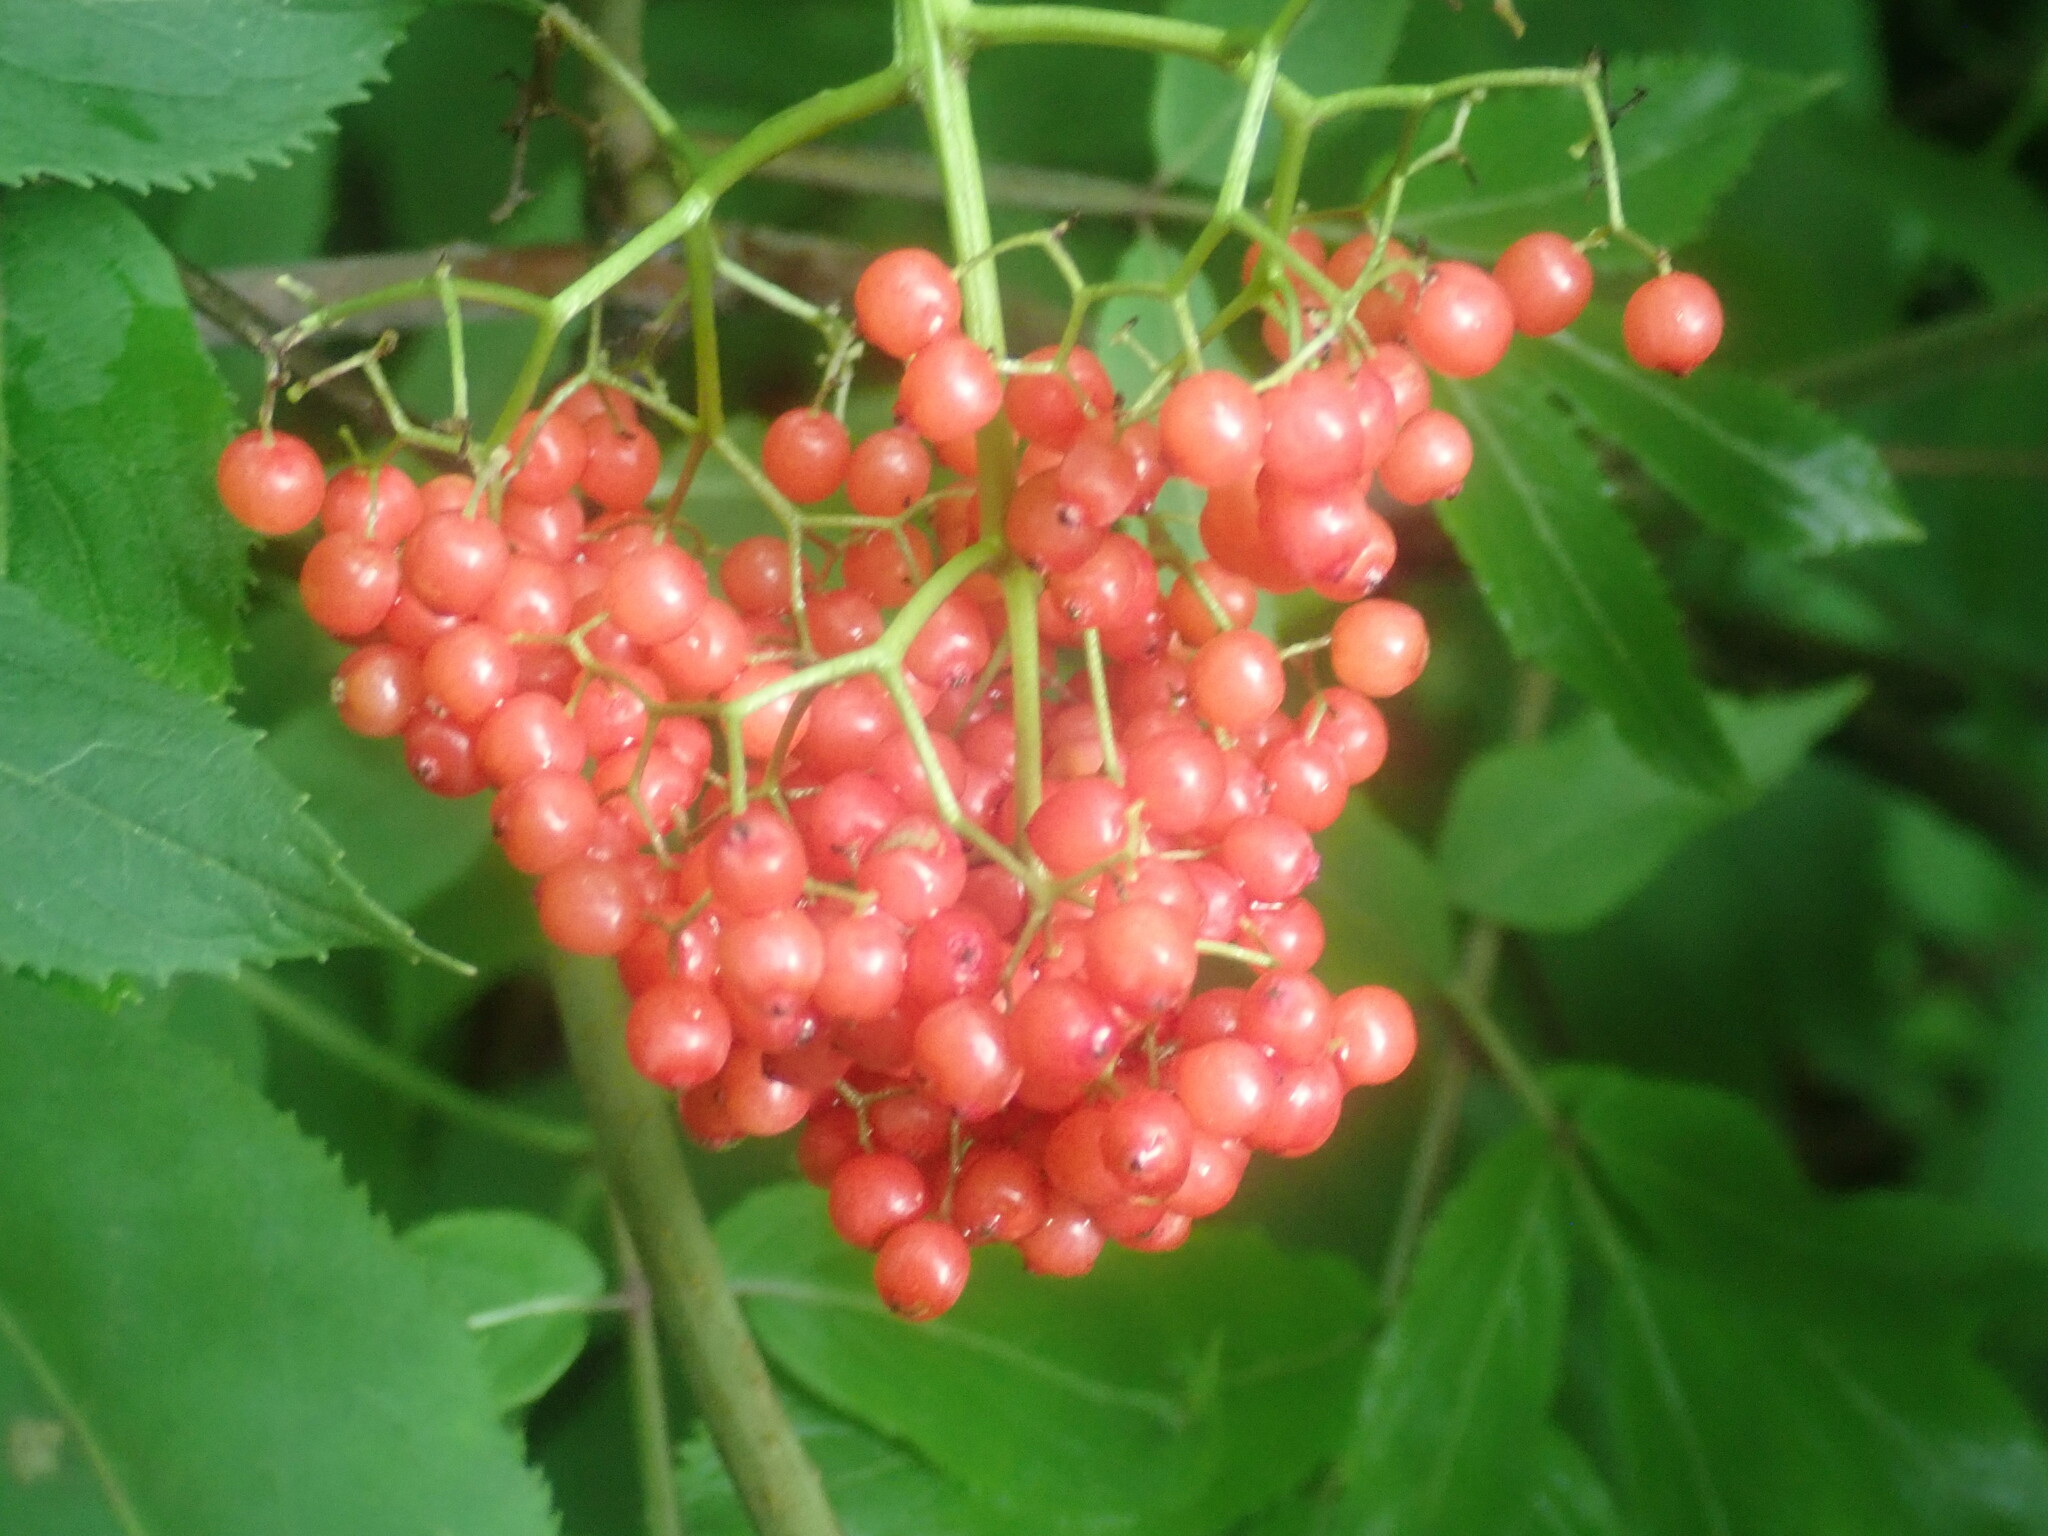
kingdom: Plantae
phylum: Tracheophyta
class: Magnoliopsida
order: Dipsacales
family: Viburnaceae
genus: Sambucus
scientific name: Sambucus racemosa
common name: Red-berried elder
